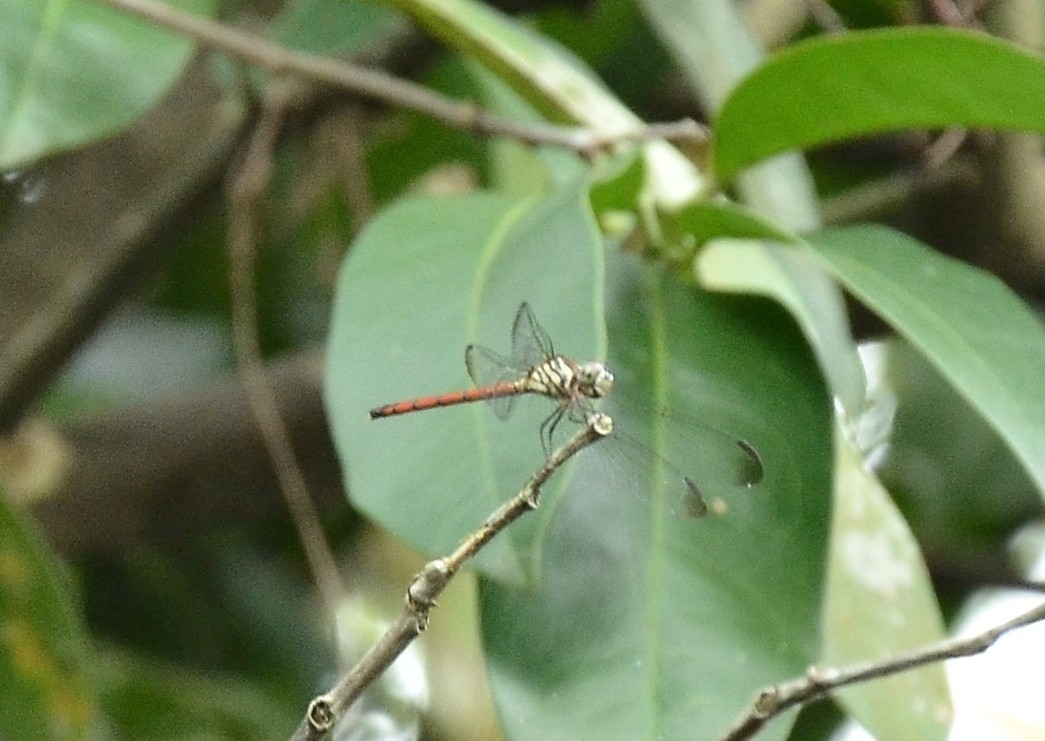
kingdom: Animalia
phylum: Arthropoda
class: Insecta
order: Odonata
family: Libellulidae
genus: Lathrecista
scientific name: Lathrecista asiatica
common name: Scarlet grenadier
